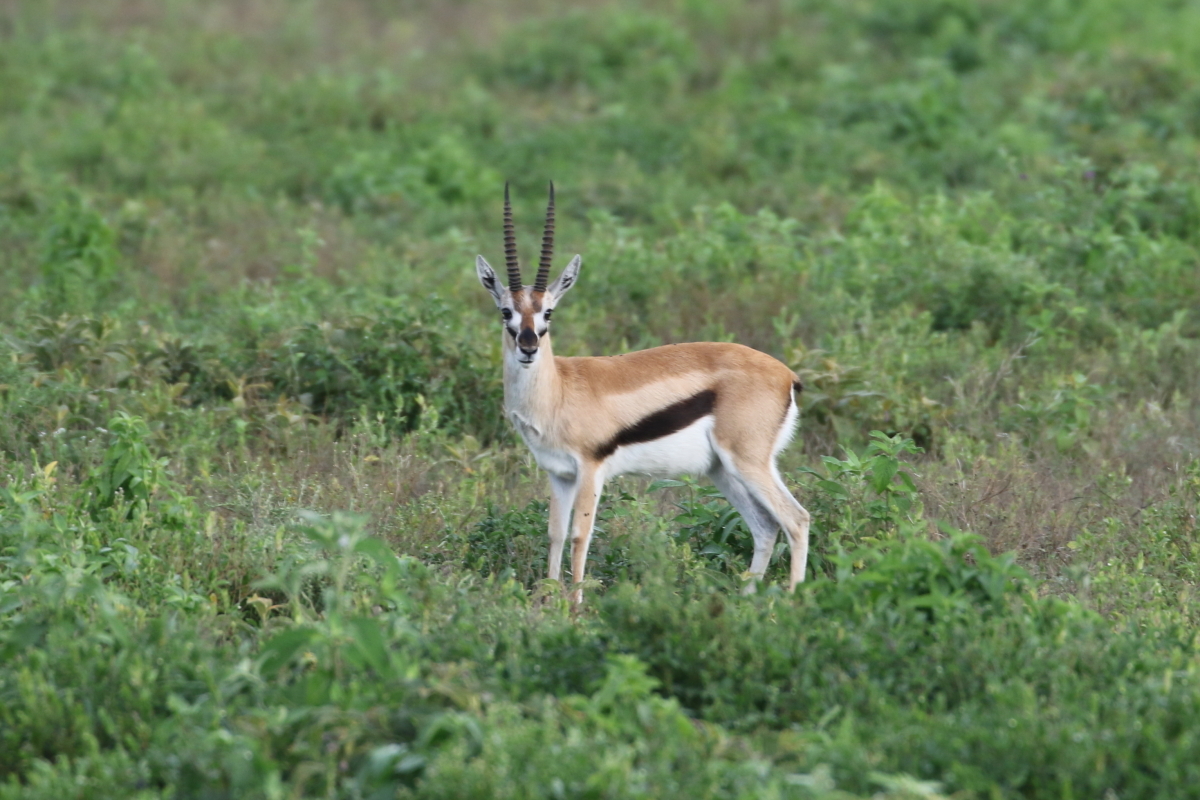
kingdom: Animalia
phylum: Chordata
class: Mammalia
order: Artiodactyla
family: Bovidae
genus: Eudorcas
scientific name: Eudorcas thomsonii
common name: Thomson's gazelle
